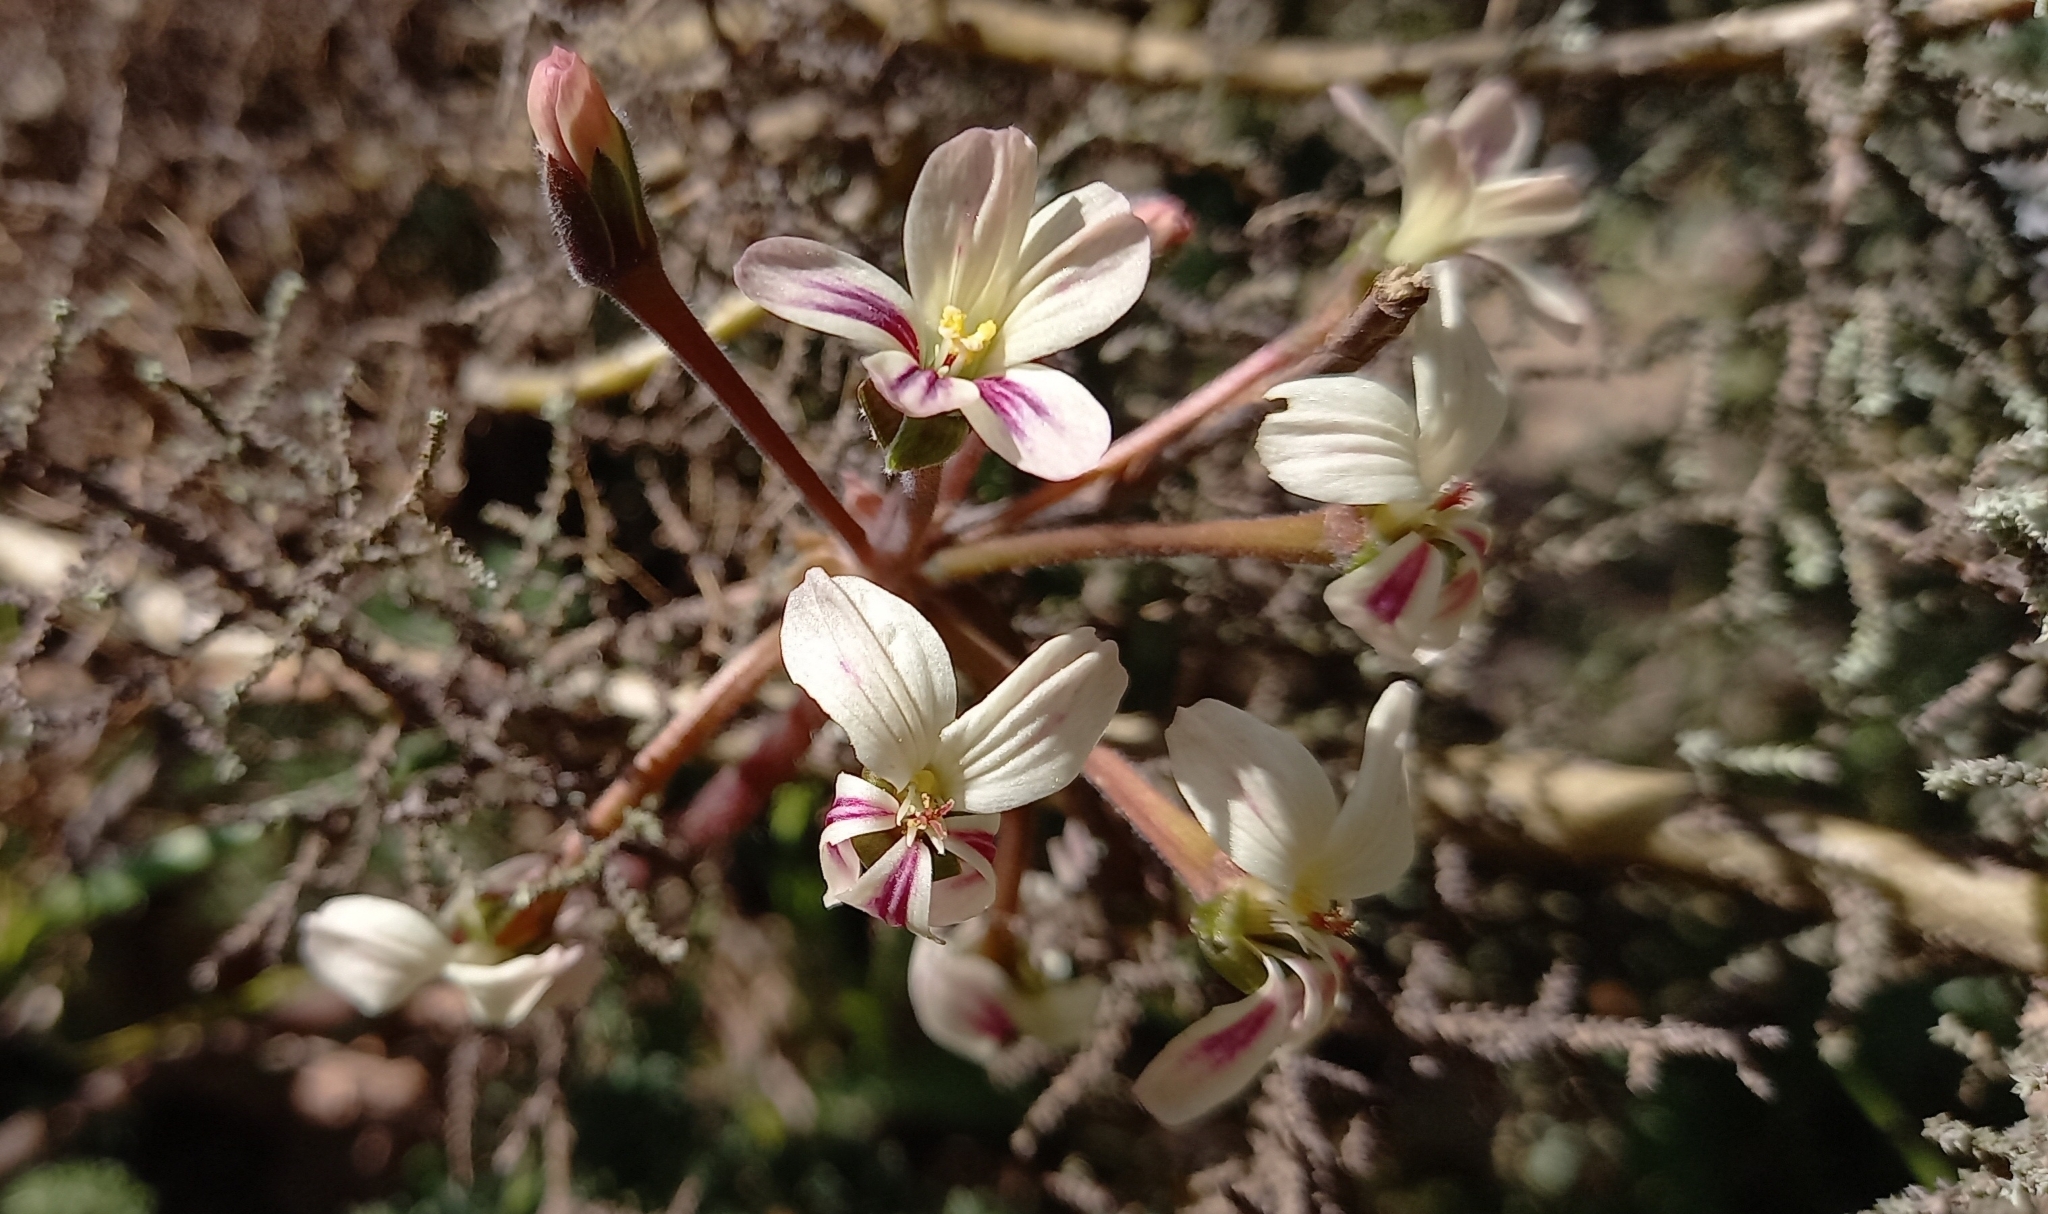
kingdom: Plantae
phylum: Tracheophyta
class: Magnoliopsida
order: Geraniales
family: Geraniaceae
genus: Pelargonium
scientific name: Pelargonium triste
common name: Night-scent pelargonium
